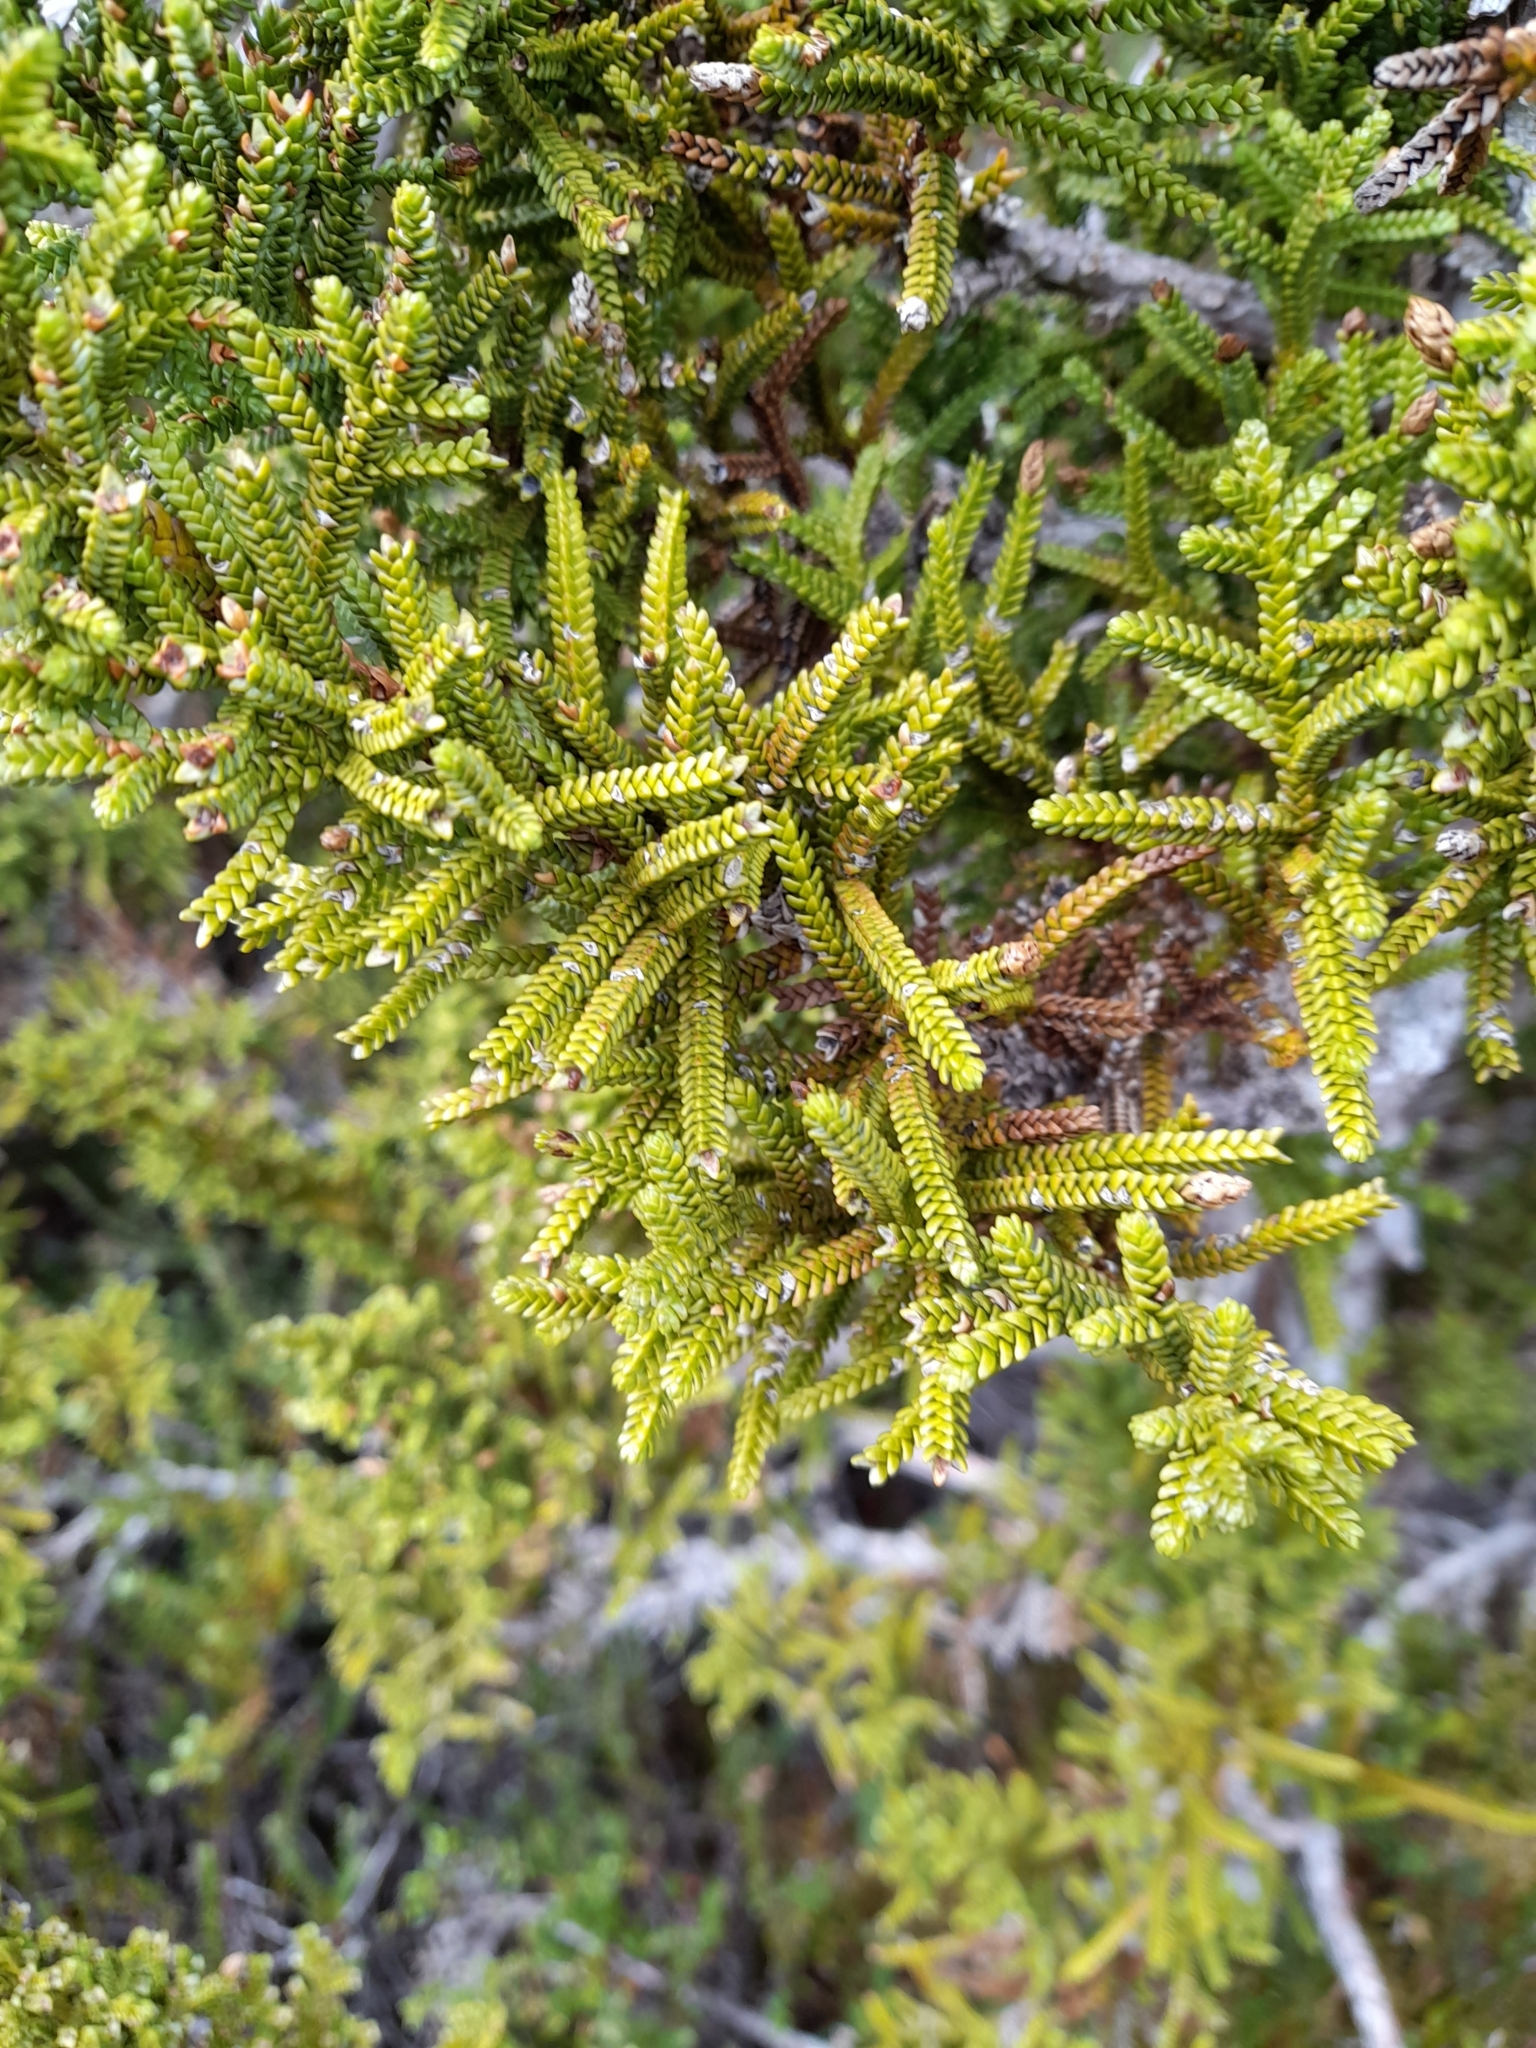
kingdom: Plantae
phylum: Tracheophyta
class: Pinopsida
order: Pinales
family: Cupressaceae
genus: Pilgerodendron
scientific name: Pilgerodendron uviferum
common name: Guaitecas cypress
